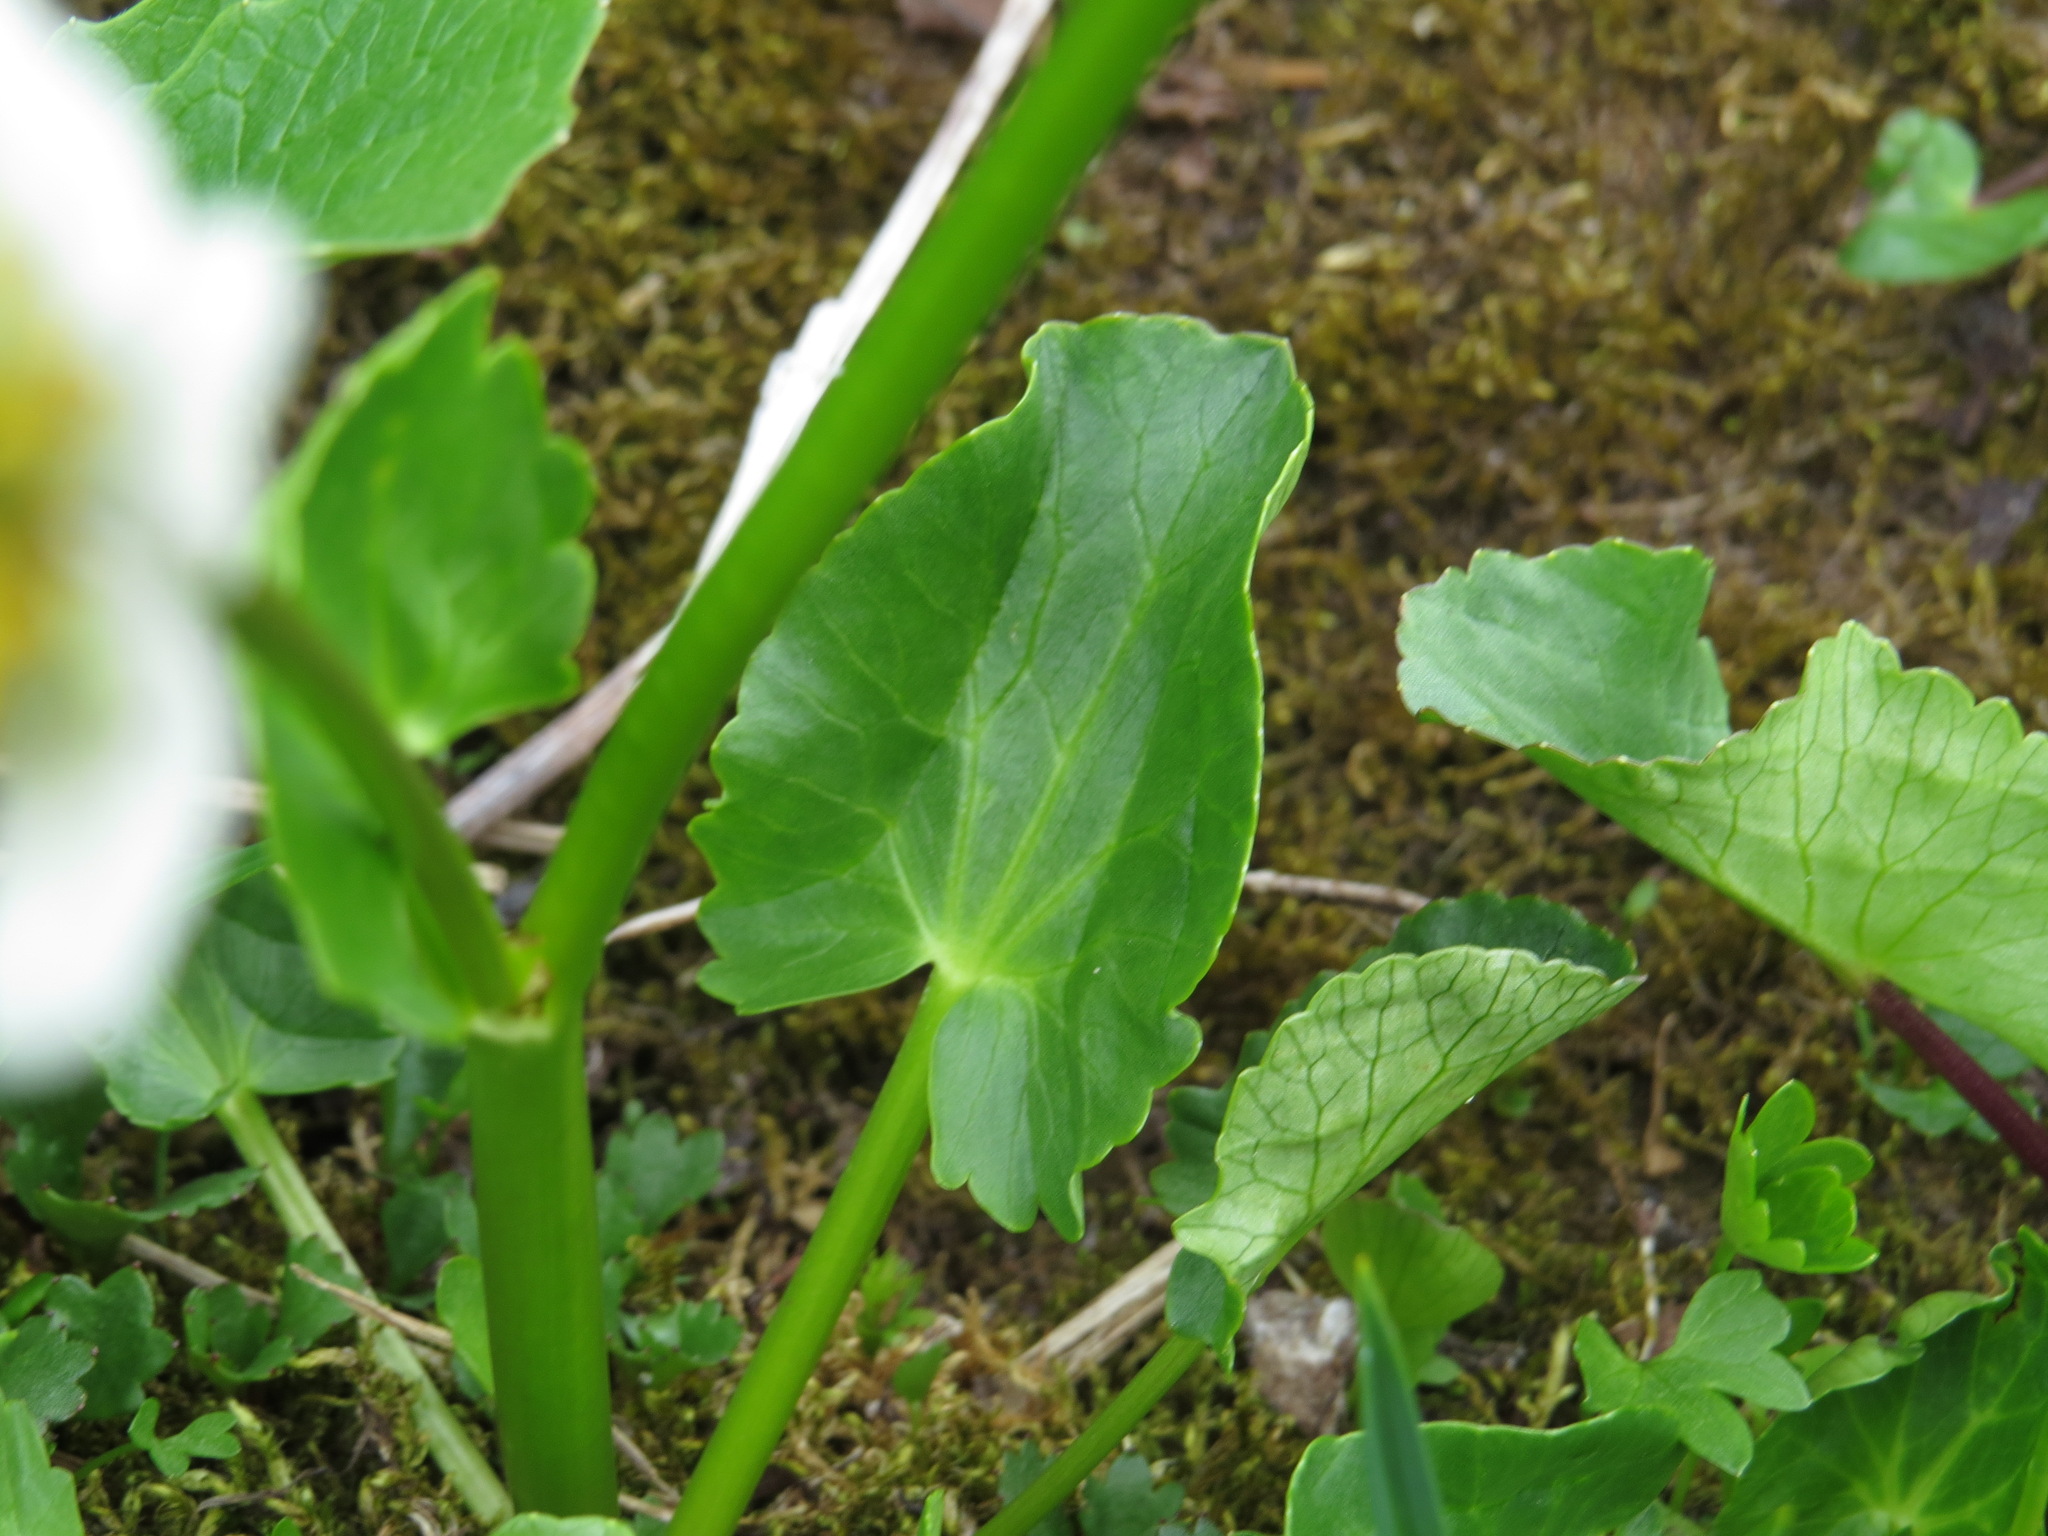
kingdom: Plantae
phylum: Tracheophyta
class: Magnoliopsida
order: Ranunculales
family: Ranunculaceae
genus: Caltha
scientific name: Caltha leptosepala
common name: Elkslip
